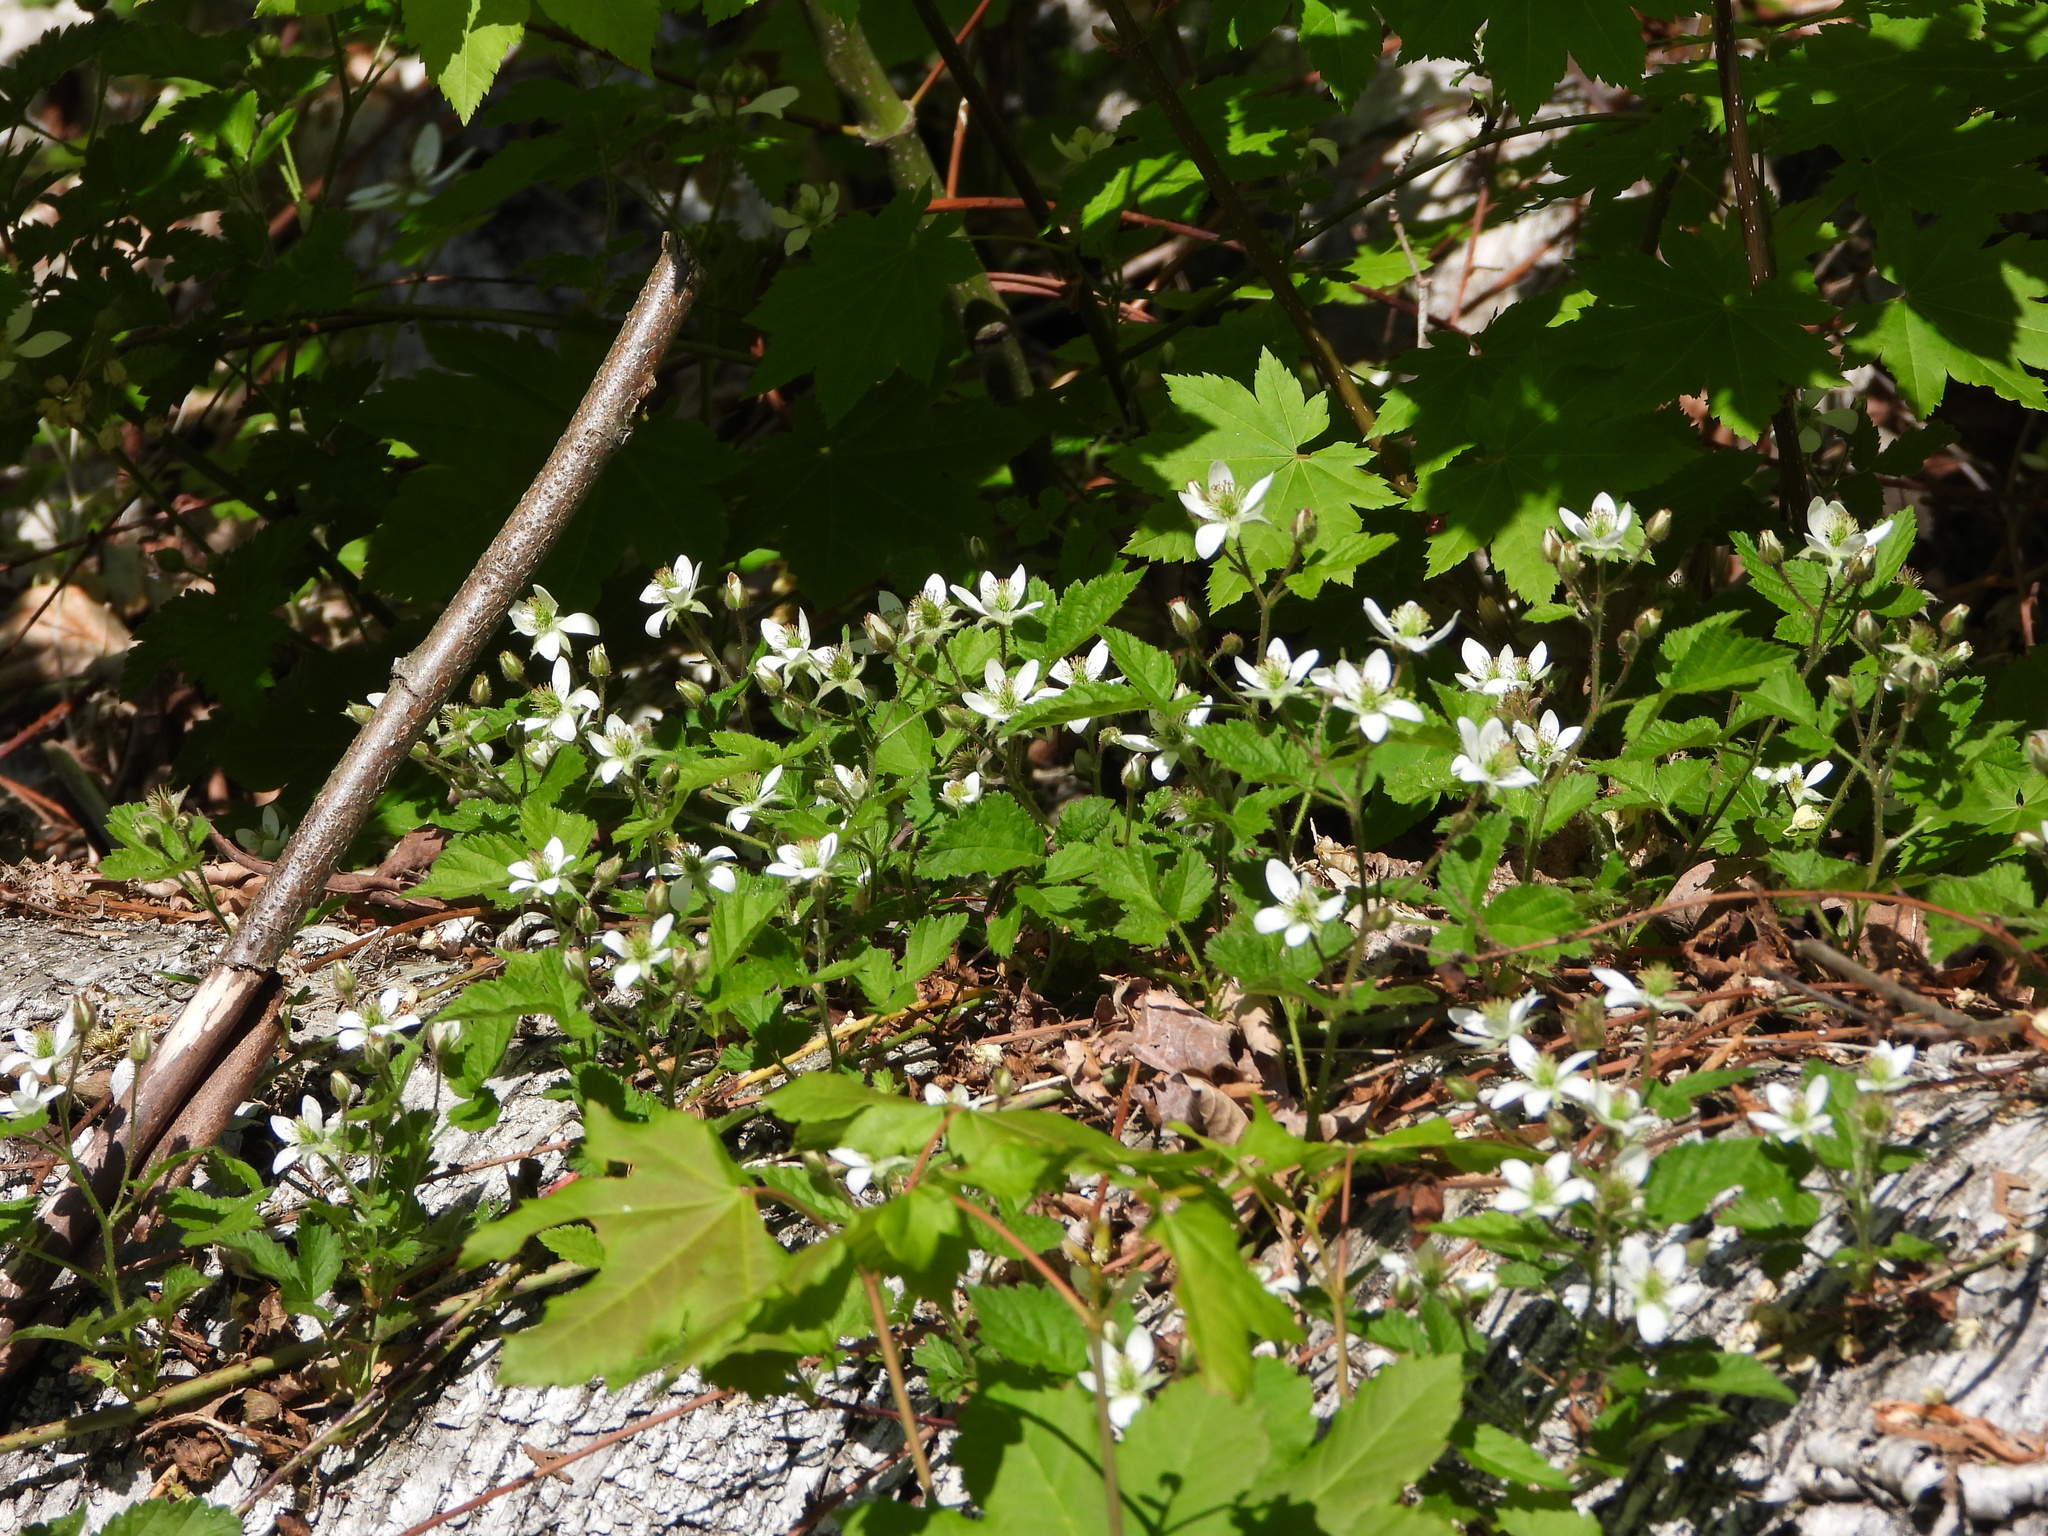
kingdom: Plantae
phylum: Tracheophyta
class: Magnoliopsida
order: Rosales
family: Rosaceae
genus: Rubus
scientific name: Rubus ursinus
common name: Pacific blackberry
